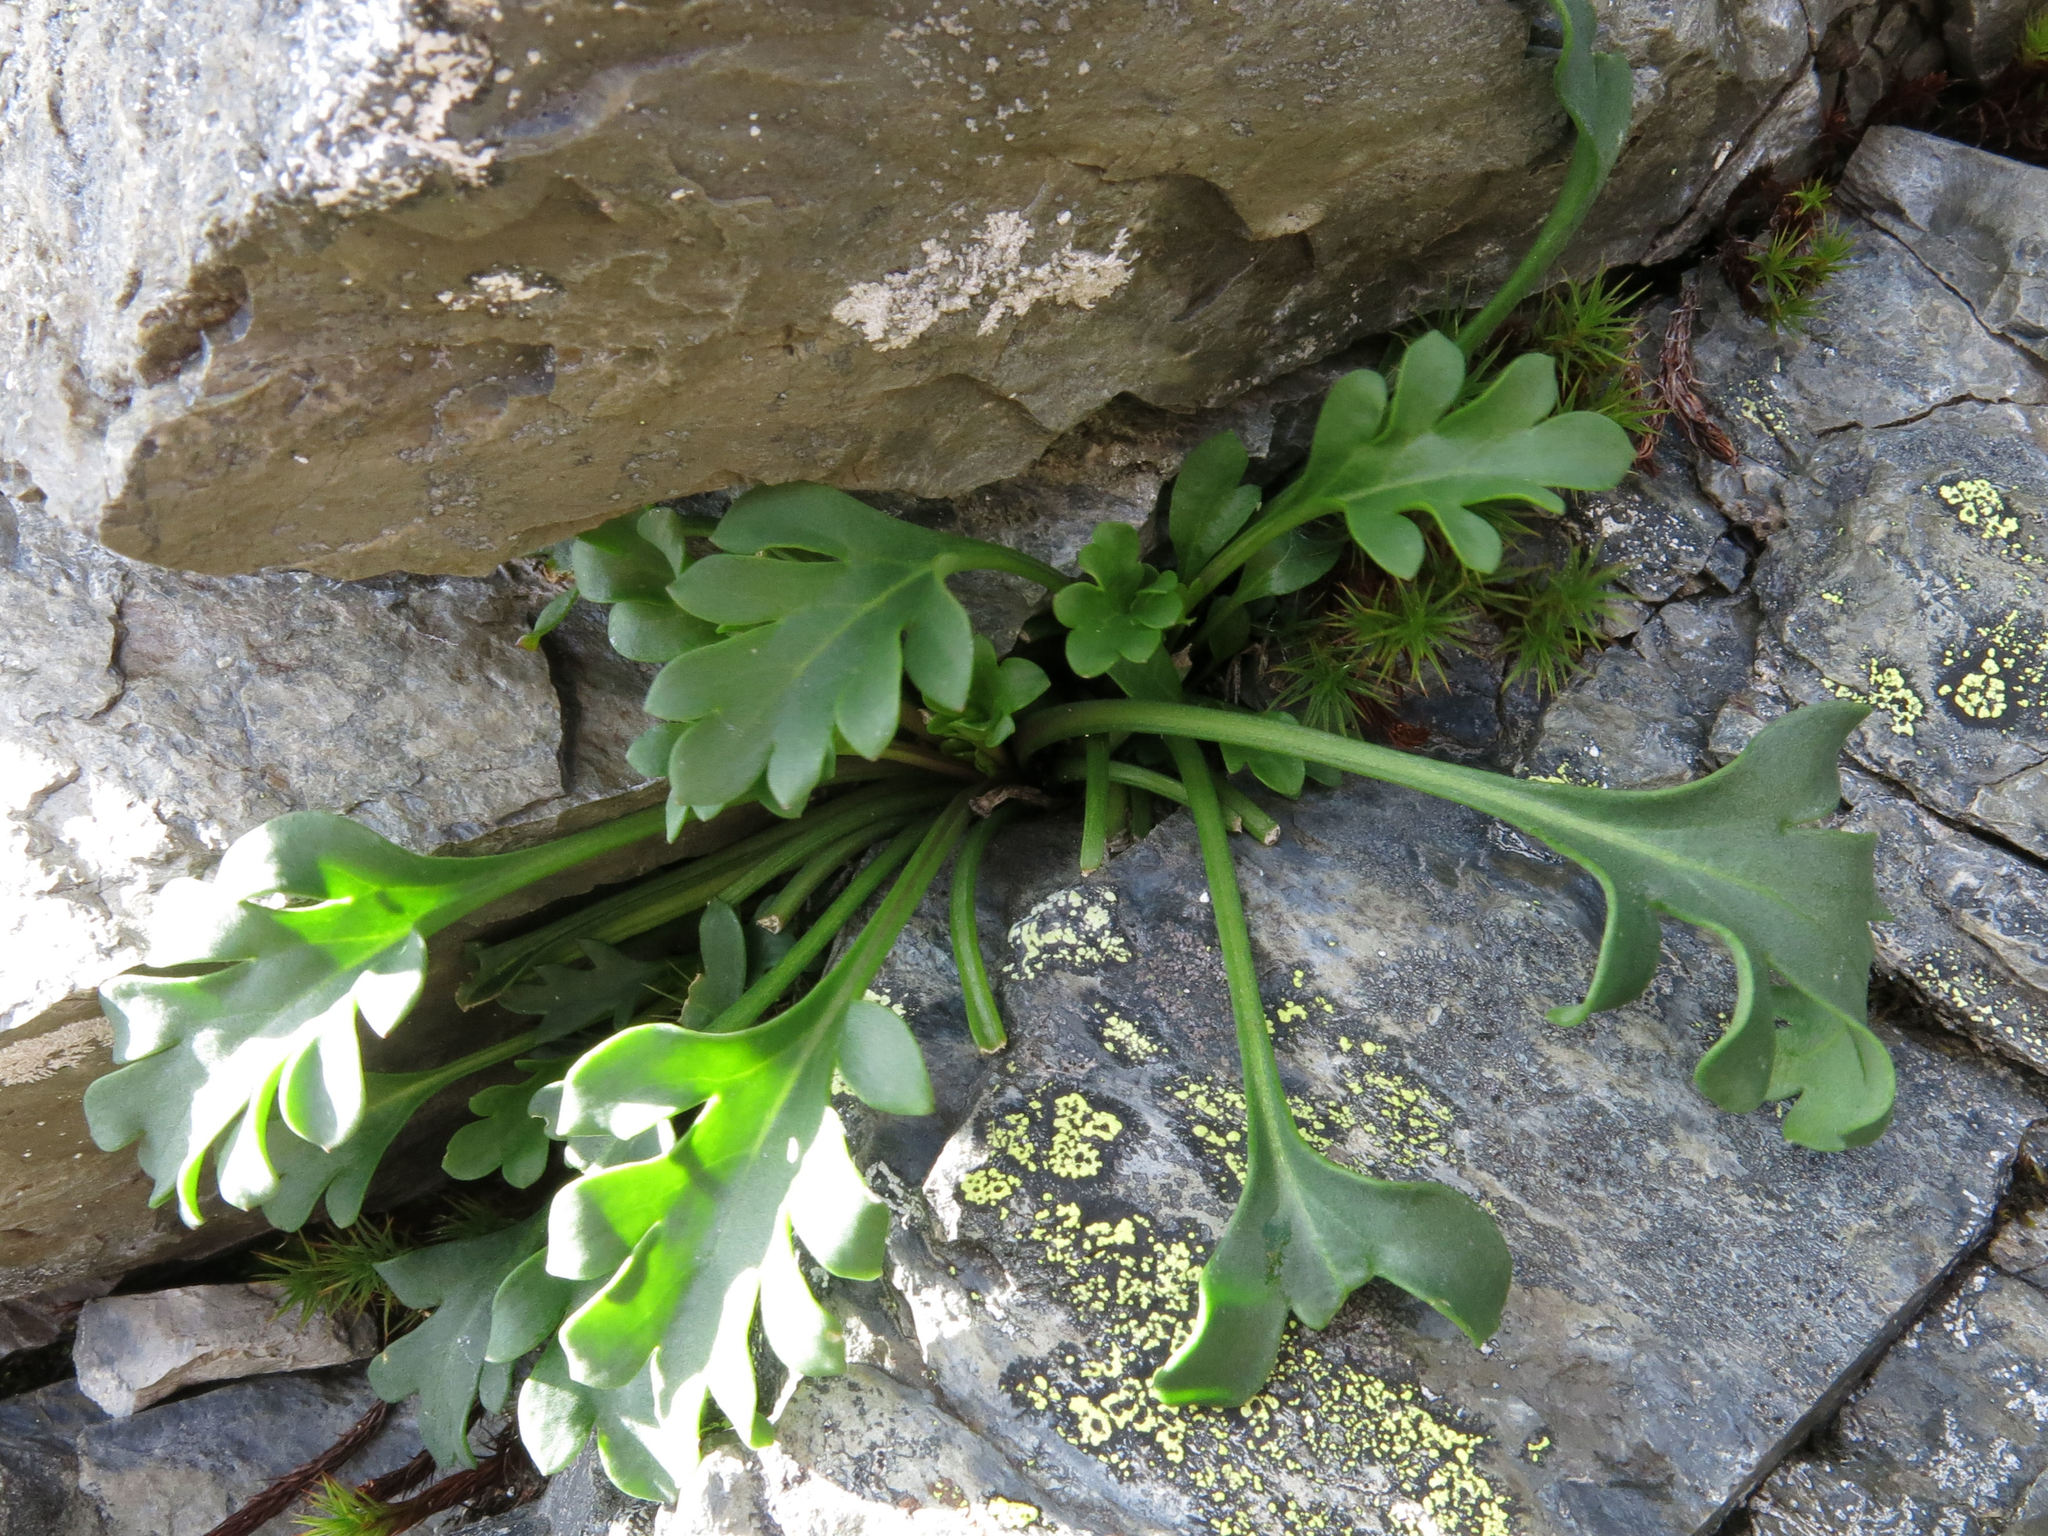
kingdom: Plantae
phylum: Tracheophyta
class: Magnoliopsida
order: Brassicales
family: Brassicaceae
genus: Pachycladon
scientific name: Pachycladon wallii
